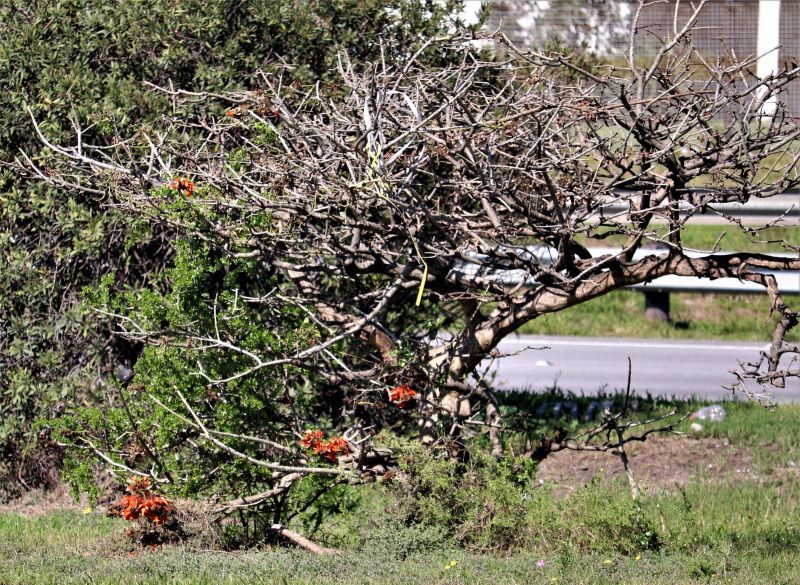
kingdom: Plantae
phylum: Tracheophyta
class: Magnoliopsida
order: Fabales
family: Fabaceae
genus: Erythrina
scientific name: Erythrina caffra
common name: Coast coral tree
